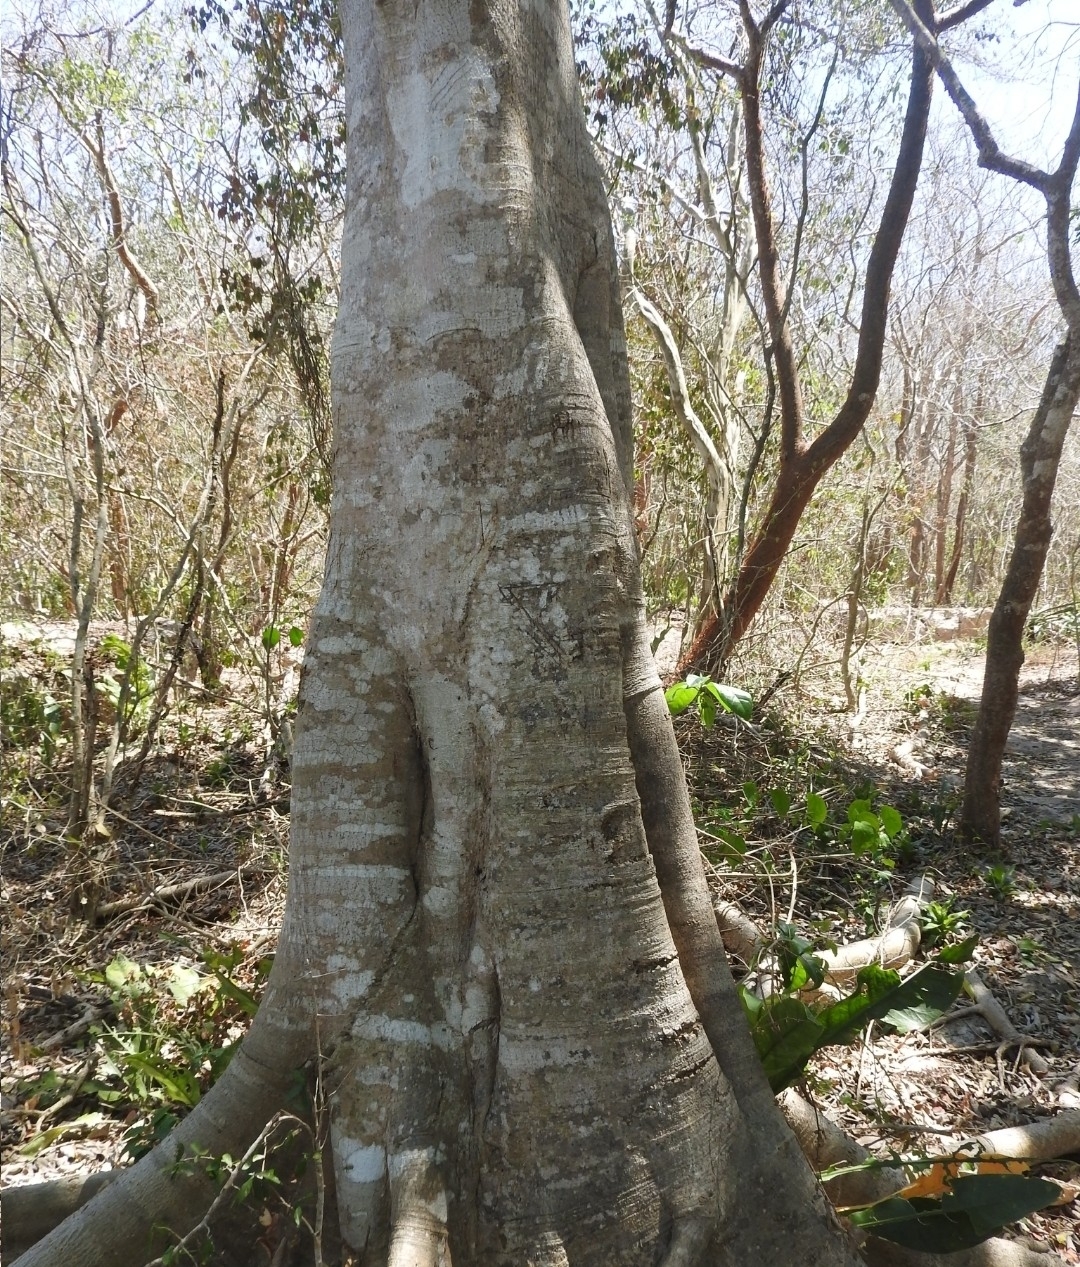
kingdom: Plantae
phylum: Tracheophyta
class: Magnoliopsida
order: Rosales
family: Moraceae
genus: Ficus
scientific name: Ficus cotinifolia
